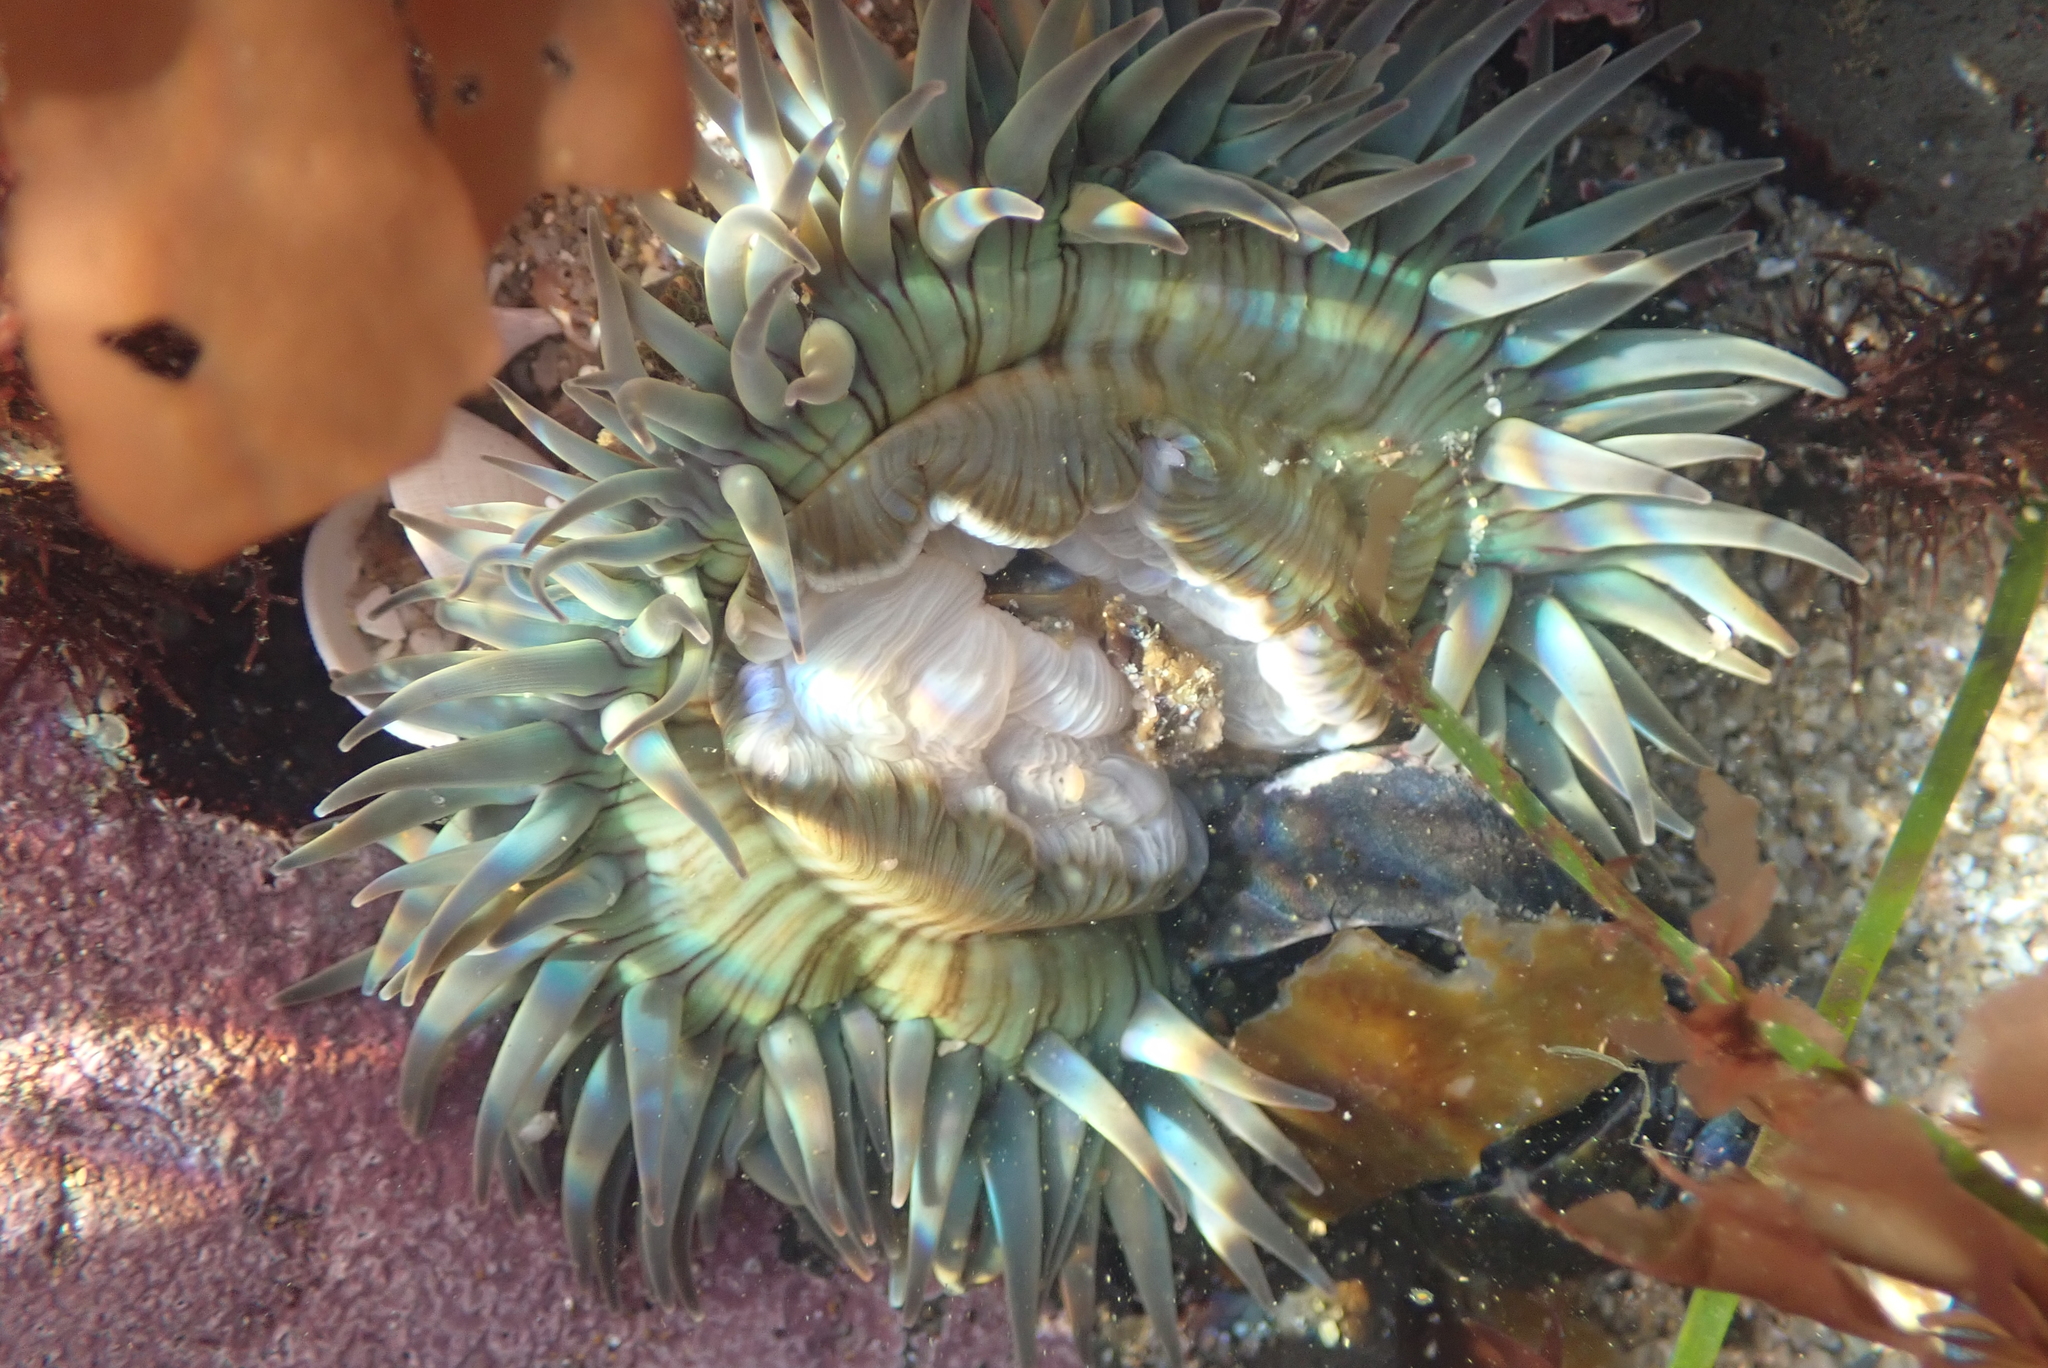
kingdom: Animalia
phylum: Cnidaria
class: Anthozoa
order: Actiniaria
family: Actiniidae
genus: Anthopleura
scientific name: Anthopleura sola
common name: Sun anemone
